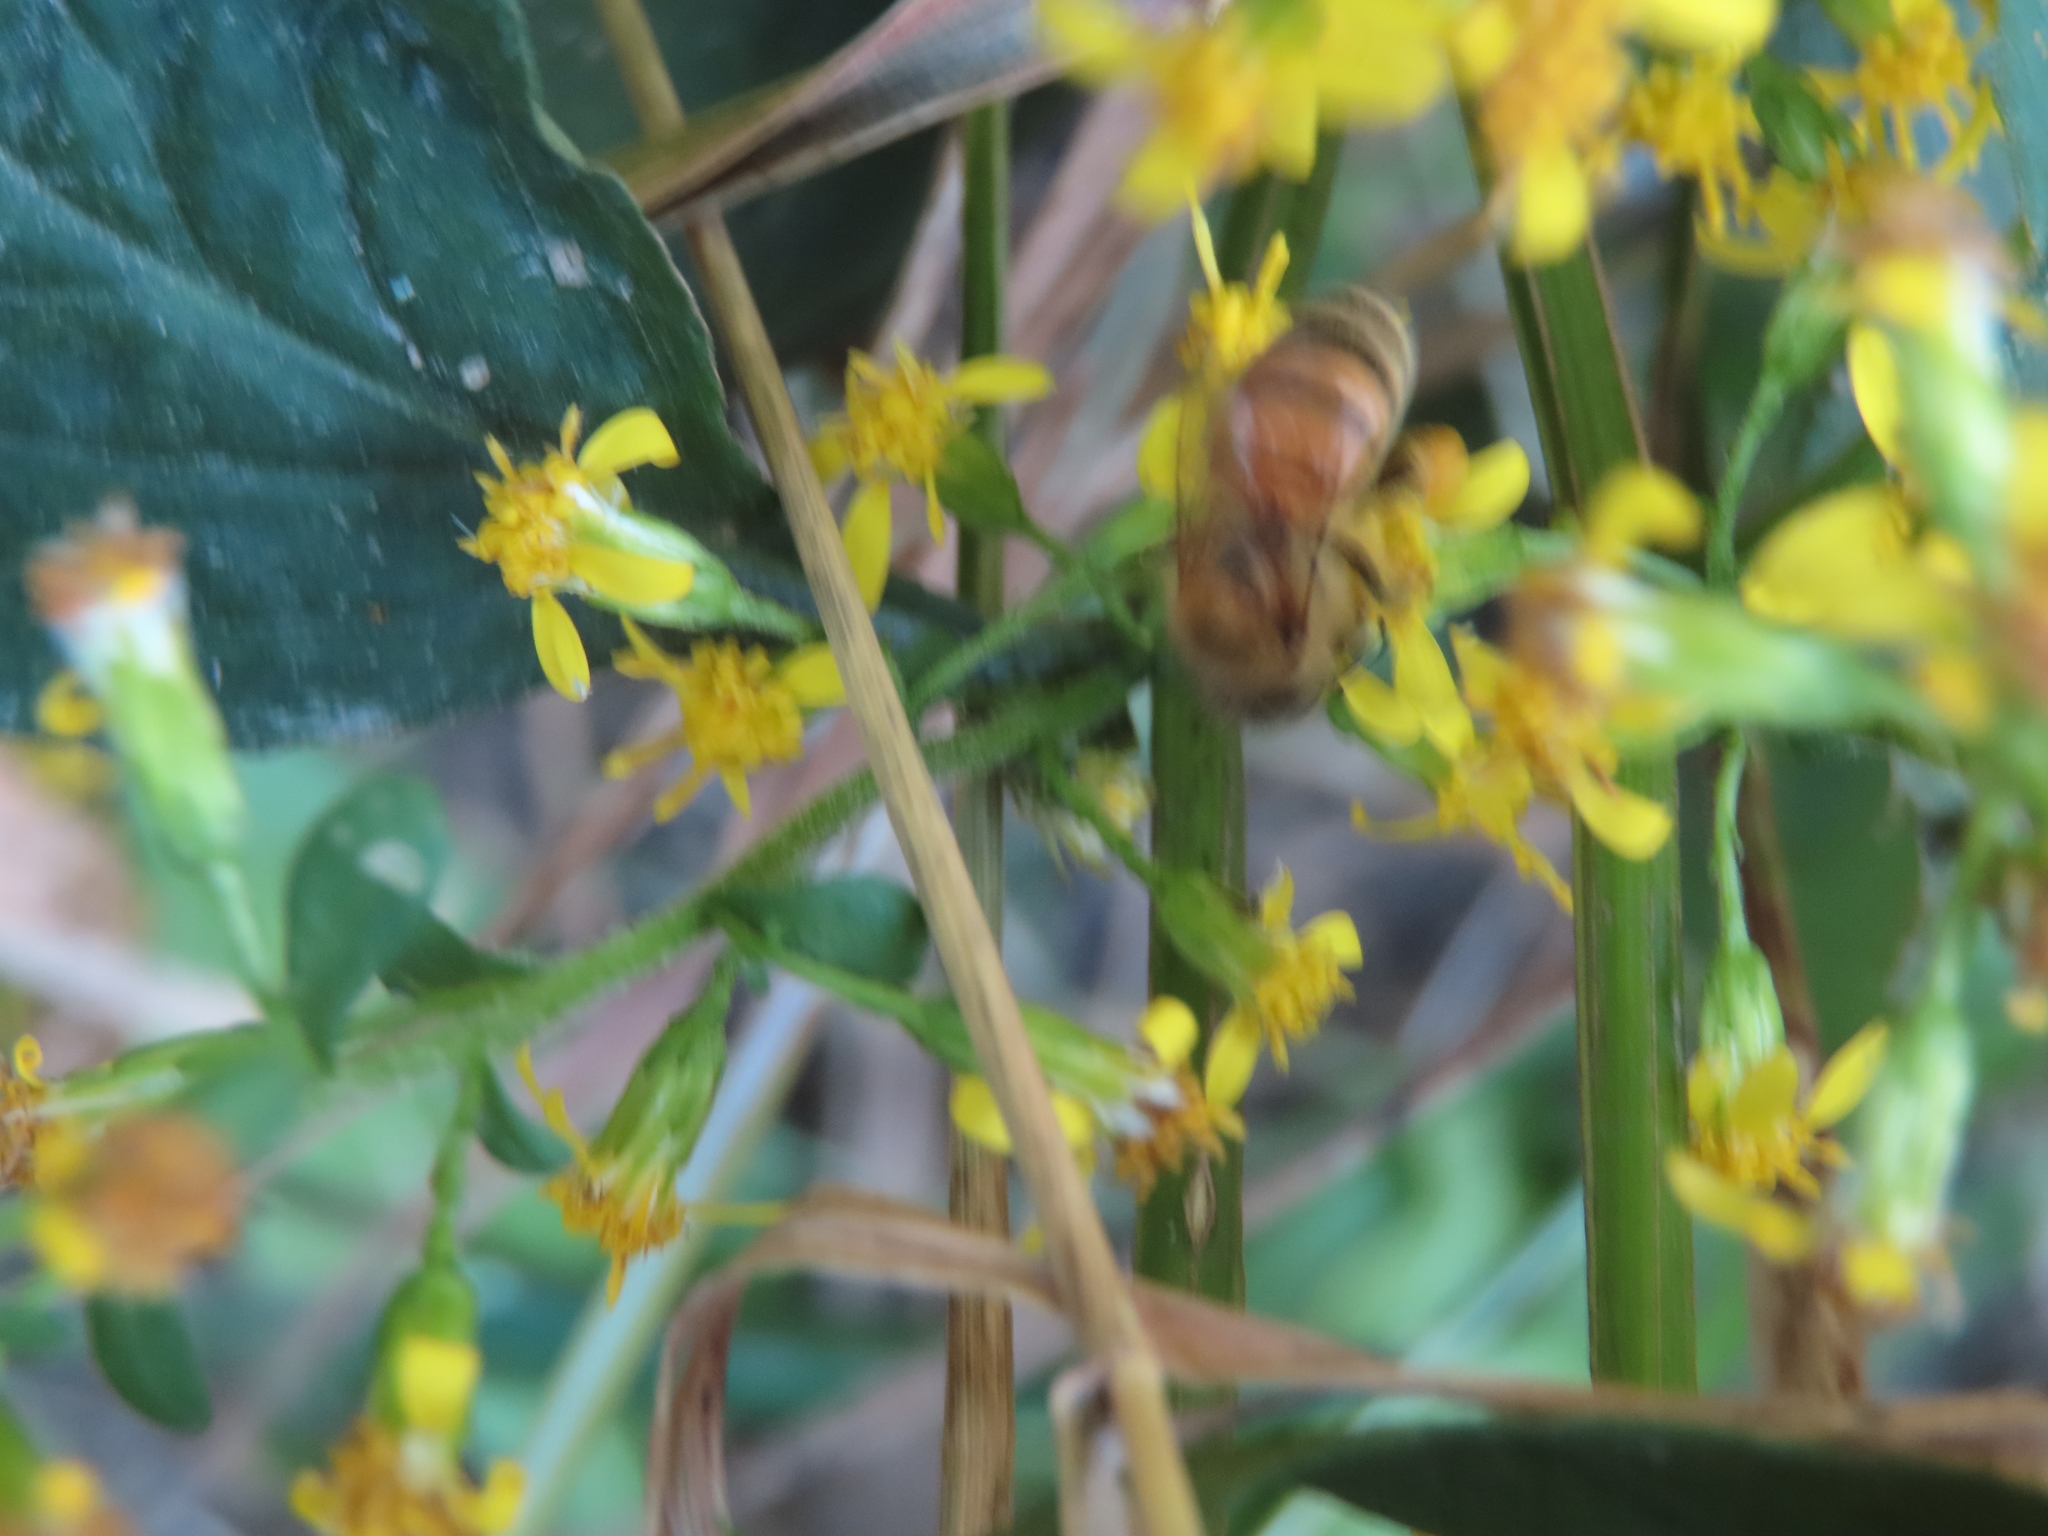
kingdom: Animalia
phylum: Arthropoda
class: Insecta
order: Hymenoptera
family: Apidae
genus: Apis
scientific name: Apis mellifera
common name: Honey bee
